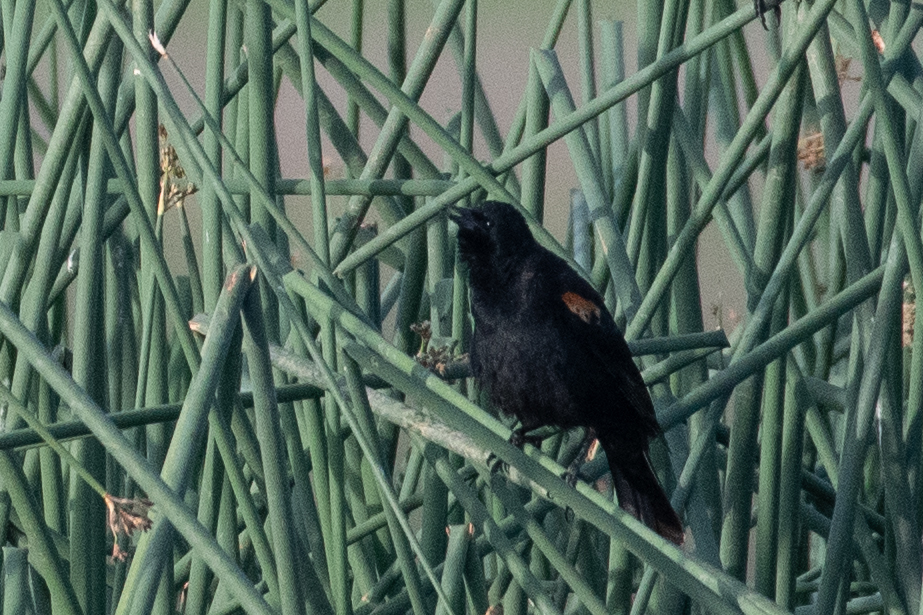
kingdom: Animalia
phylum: Chordata
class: Aves
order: Passeriformes
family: Icteridae
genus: Agelaius
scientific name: Agelaius phoeniceus
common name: Red-winged blackbird
